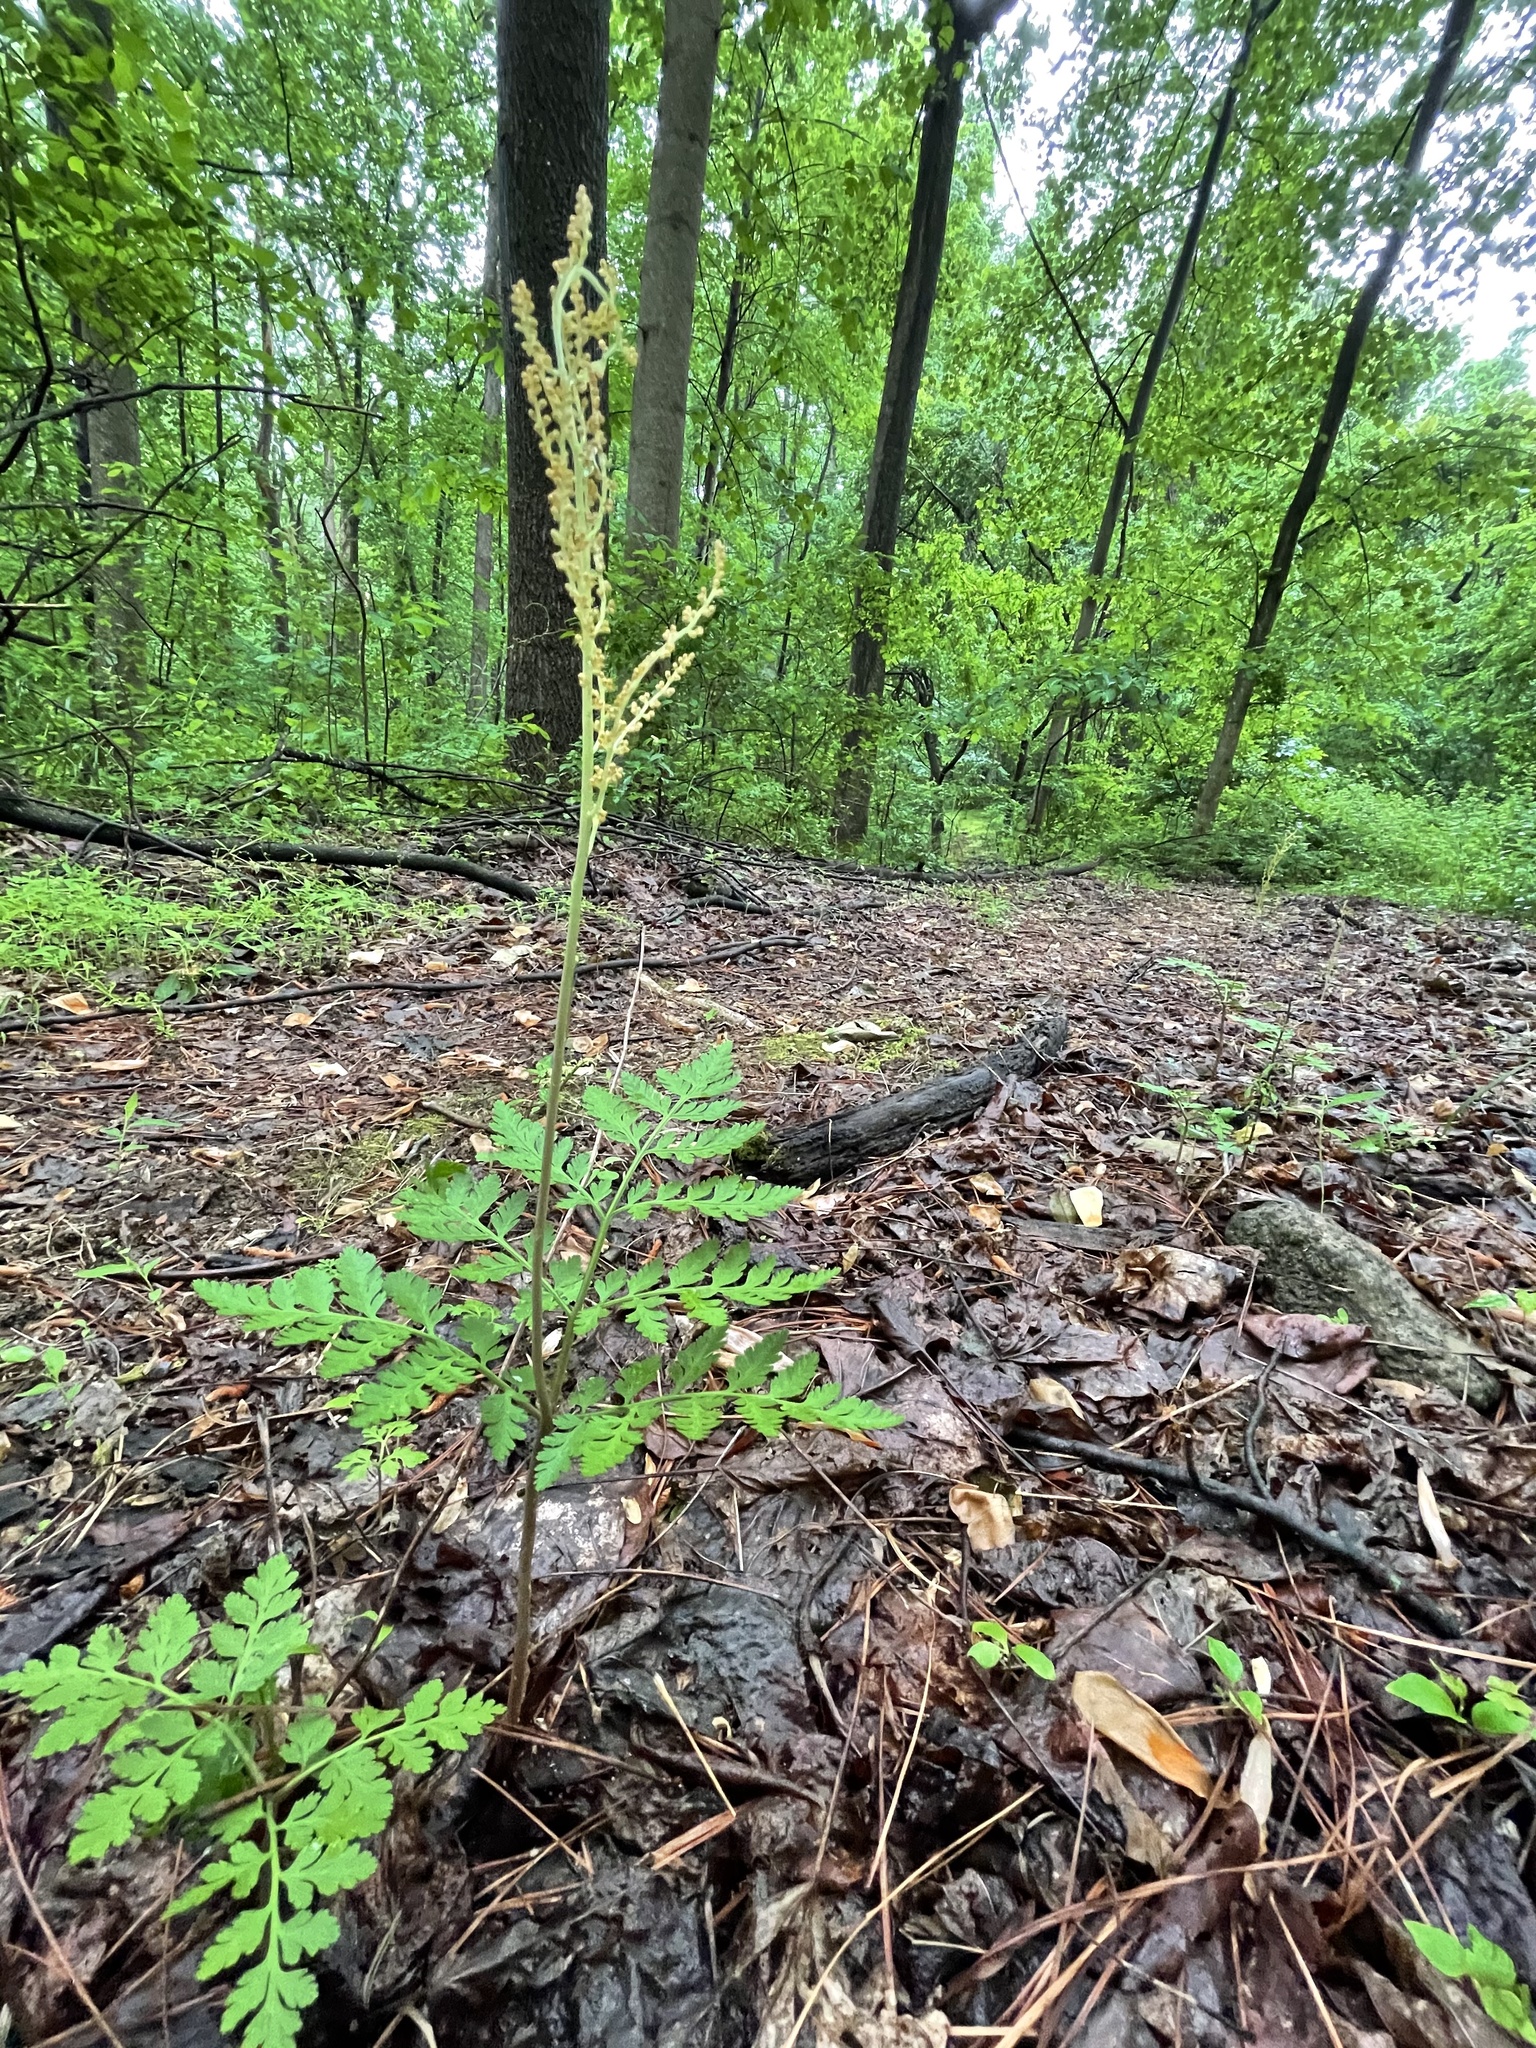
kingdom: Plantae
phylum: Tracheophyta
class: Polypodiopsida
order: Ophioglossales
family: Ophioglossaceae
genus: Botrypus
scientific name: Botrypus virginianus
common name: Common grapefern
